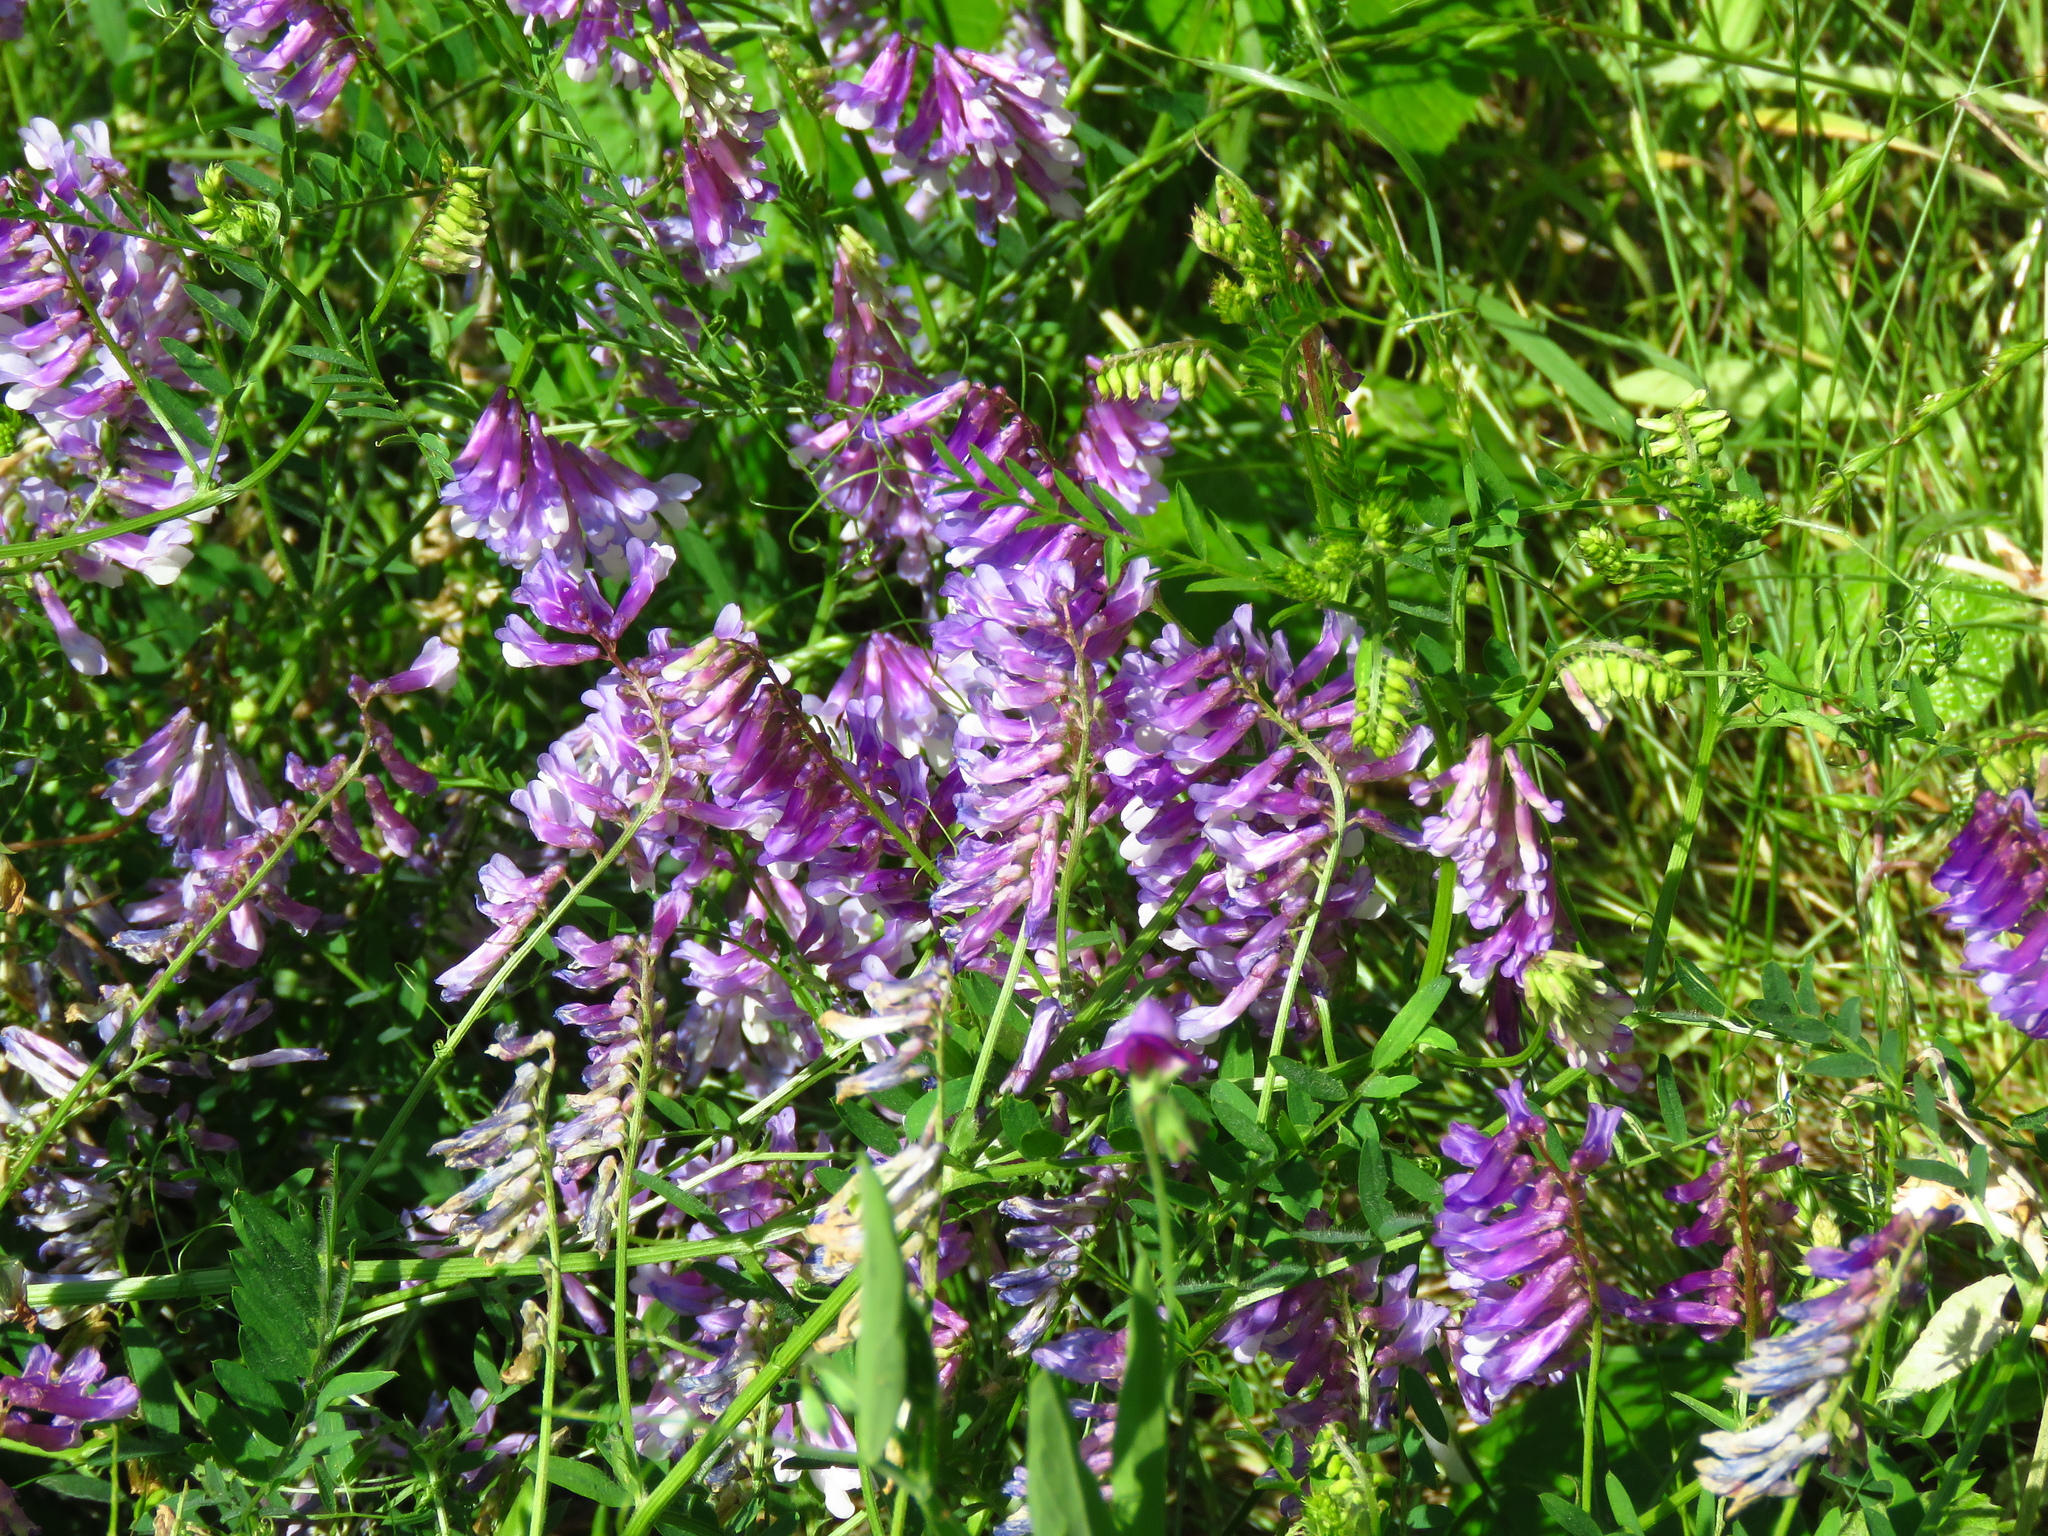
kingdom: Plantae
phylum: Tracheophyta
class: Magnoliopsida
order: Fabales
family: Fabaceae
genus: Vicia
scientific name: Vicia villosa
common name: Fodder vetch
